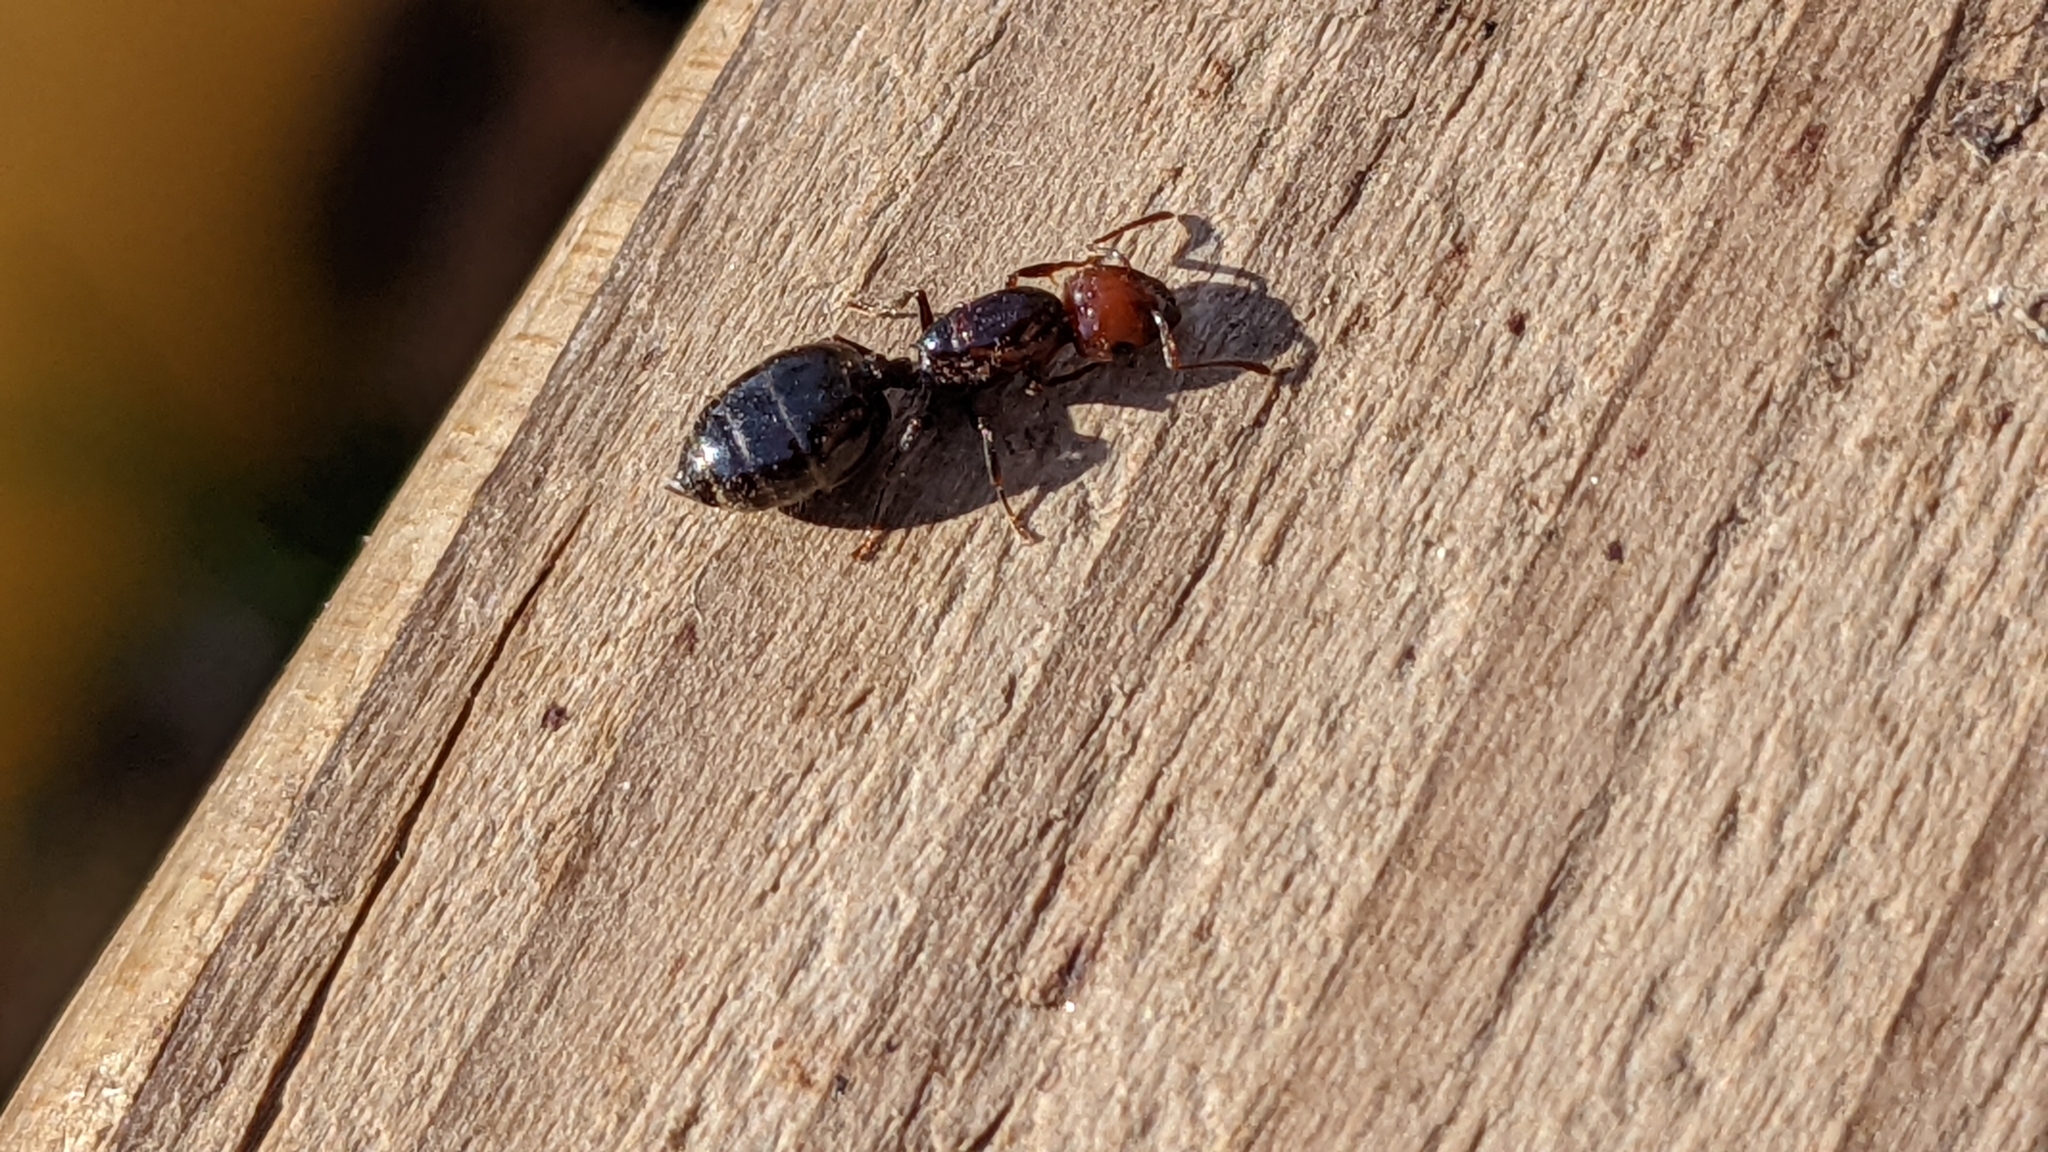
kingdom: Animalia
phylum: Arthropoda
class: Insecta
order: Hymenoptera
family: Formicidae
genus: Crematogaster
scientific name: Crematogaster scutellaris
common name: Fourmi du liège
